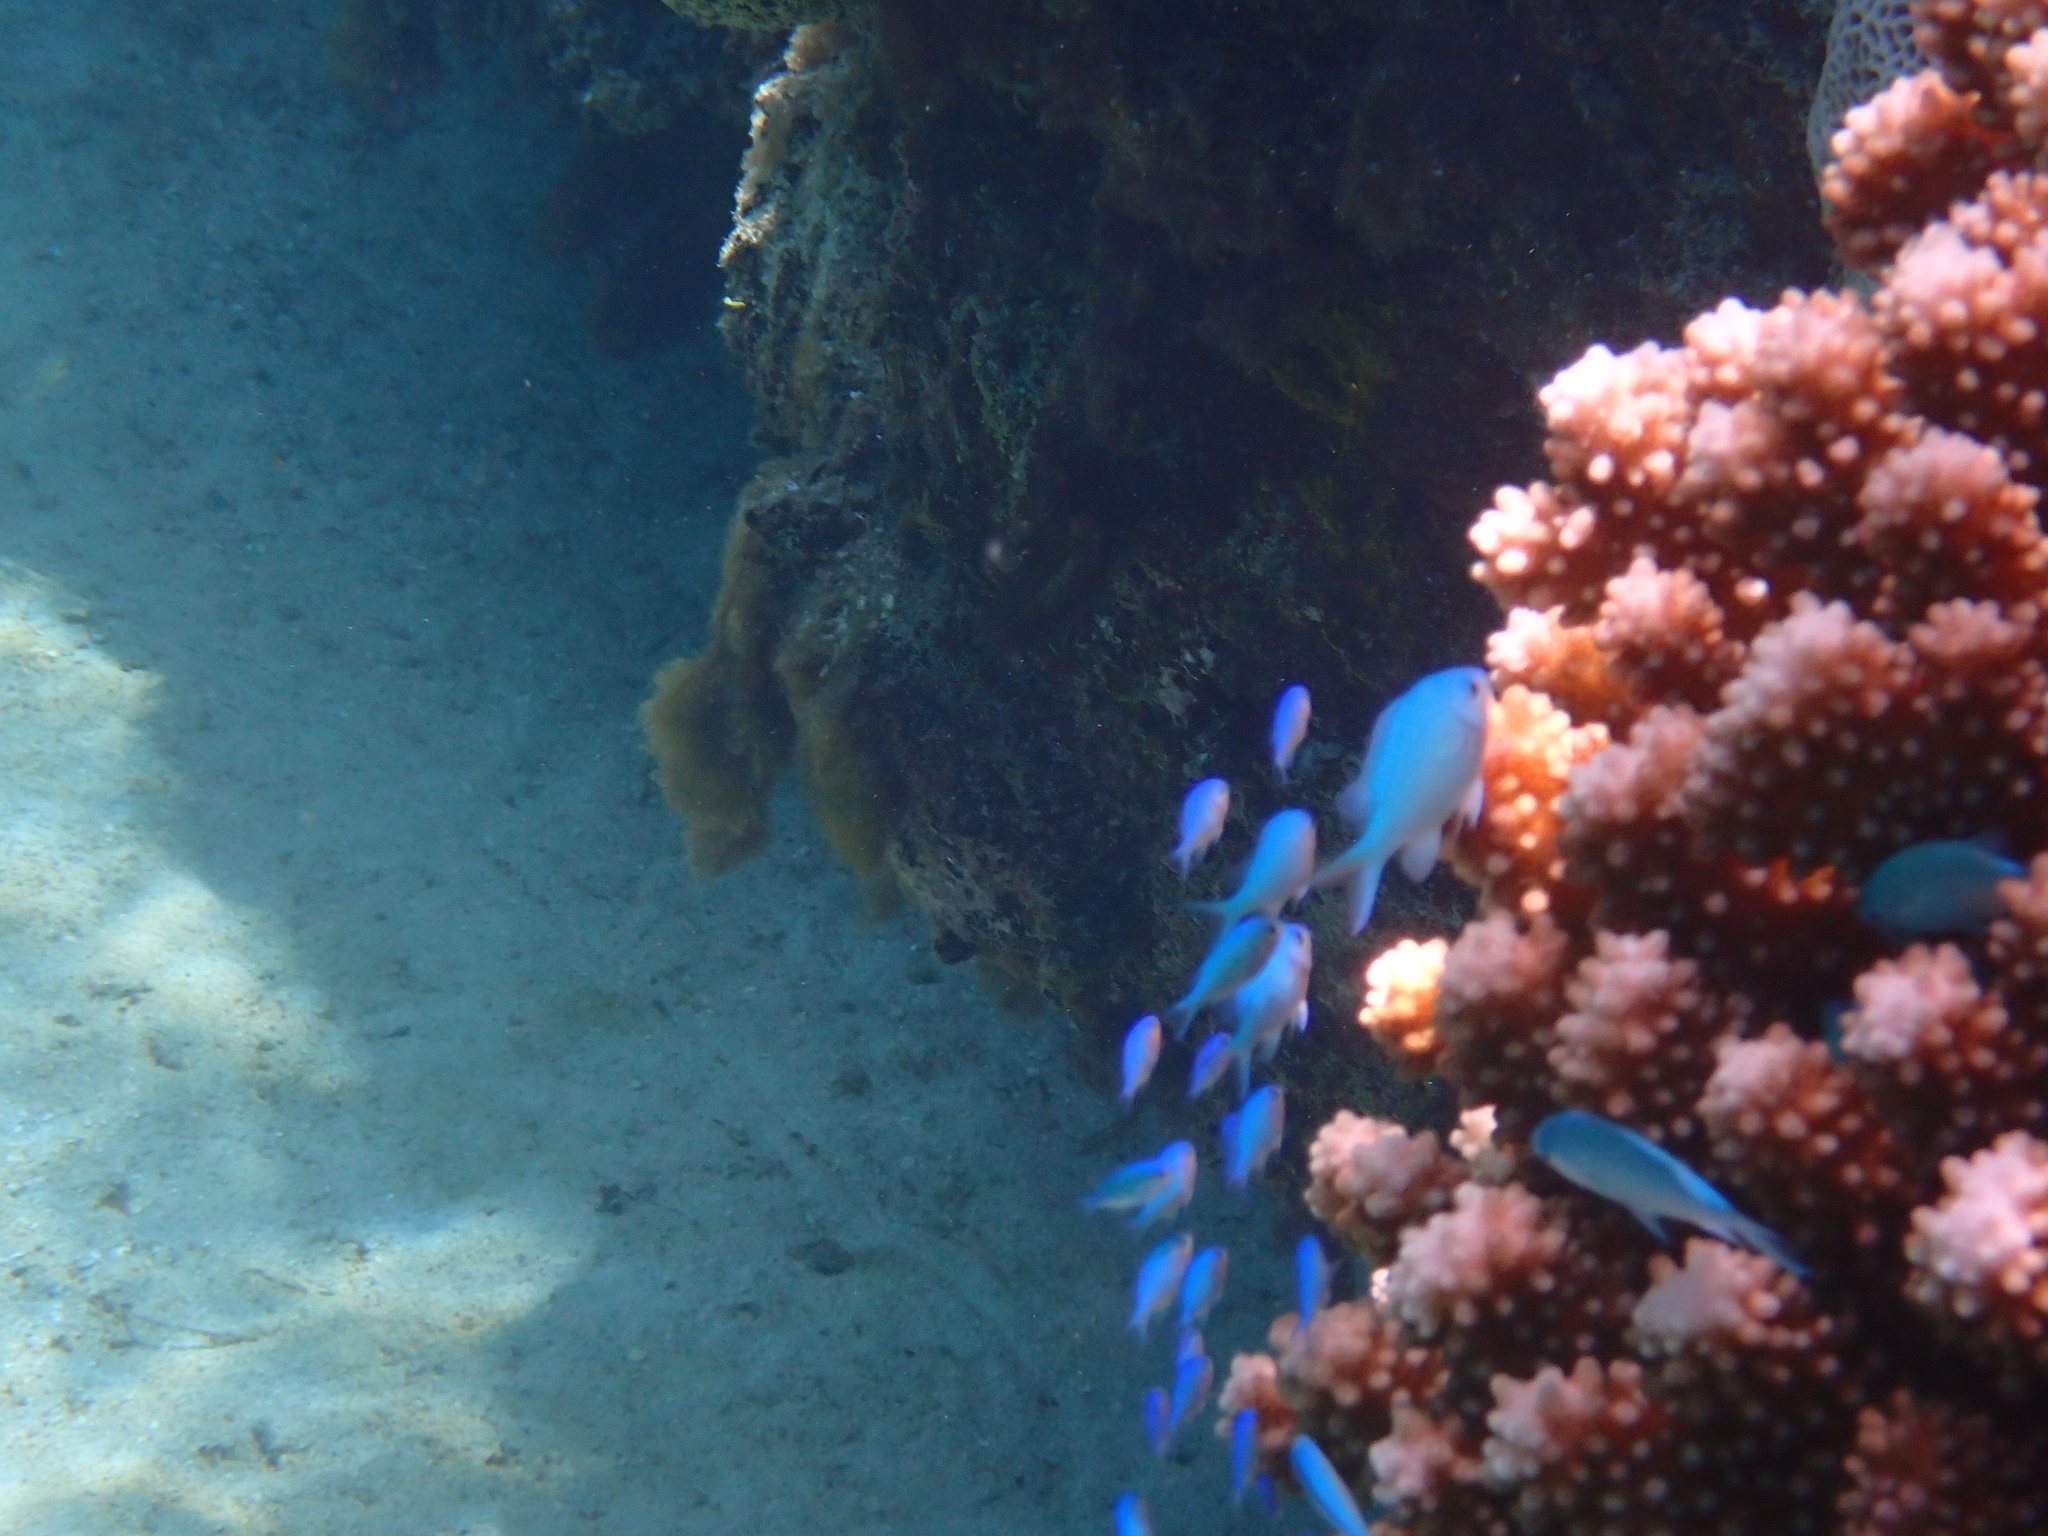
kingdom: Animalia
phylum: Chordata
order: Perciformes
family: Pomacentridae
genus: Chromis
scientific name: Chromis viridis
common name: Blue-green chromis
